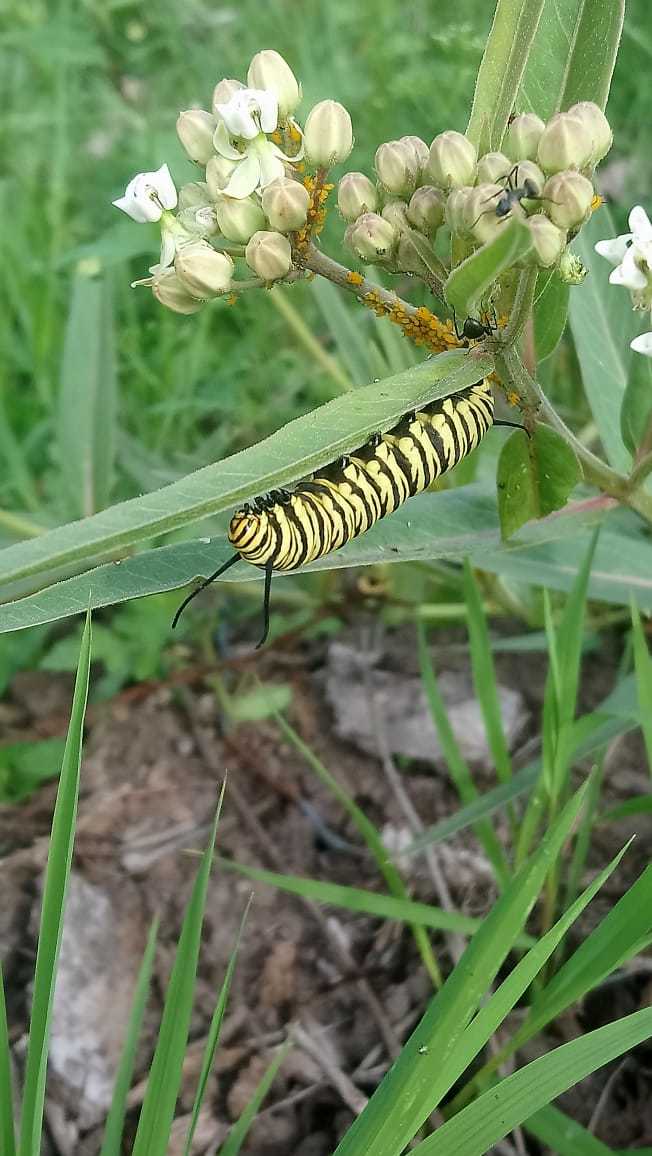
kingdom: Animalia
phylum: Arthropoda
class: Insecta
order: Lepidoptera
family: Nymphalidae
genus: Danaus
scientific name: Danaus erippus
